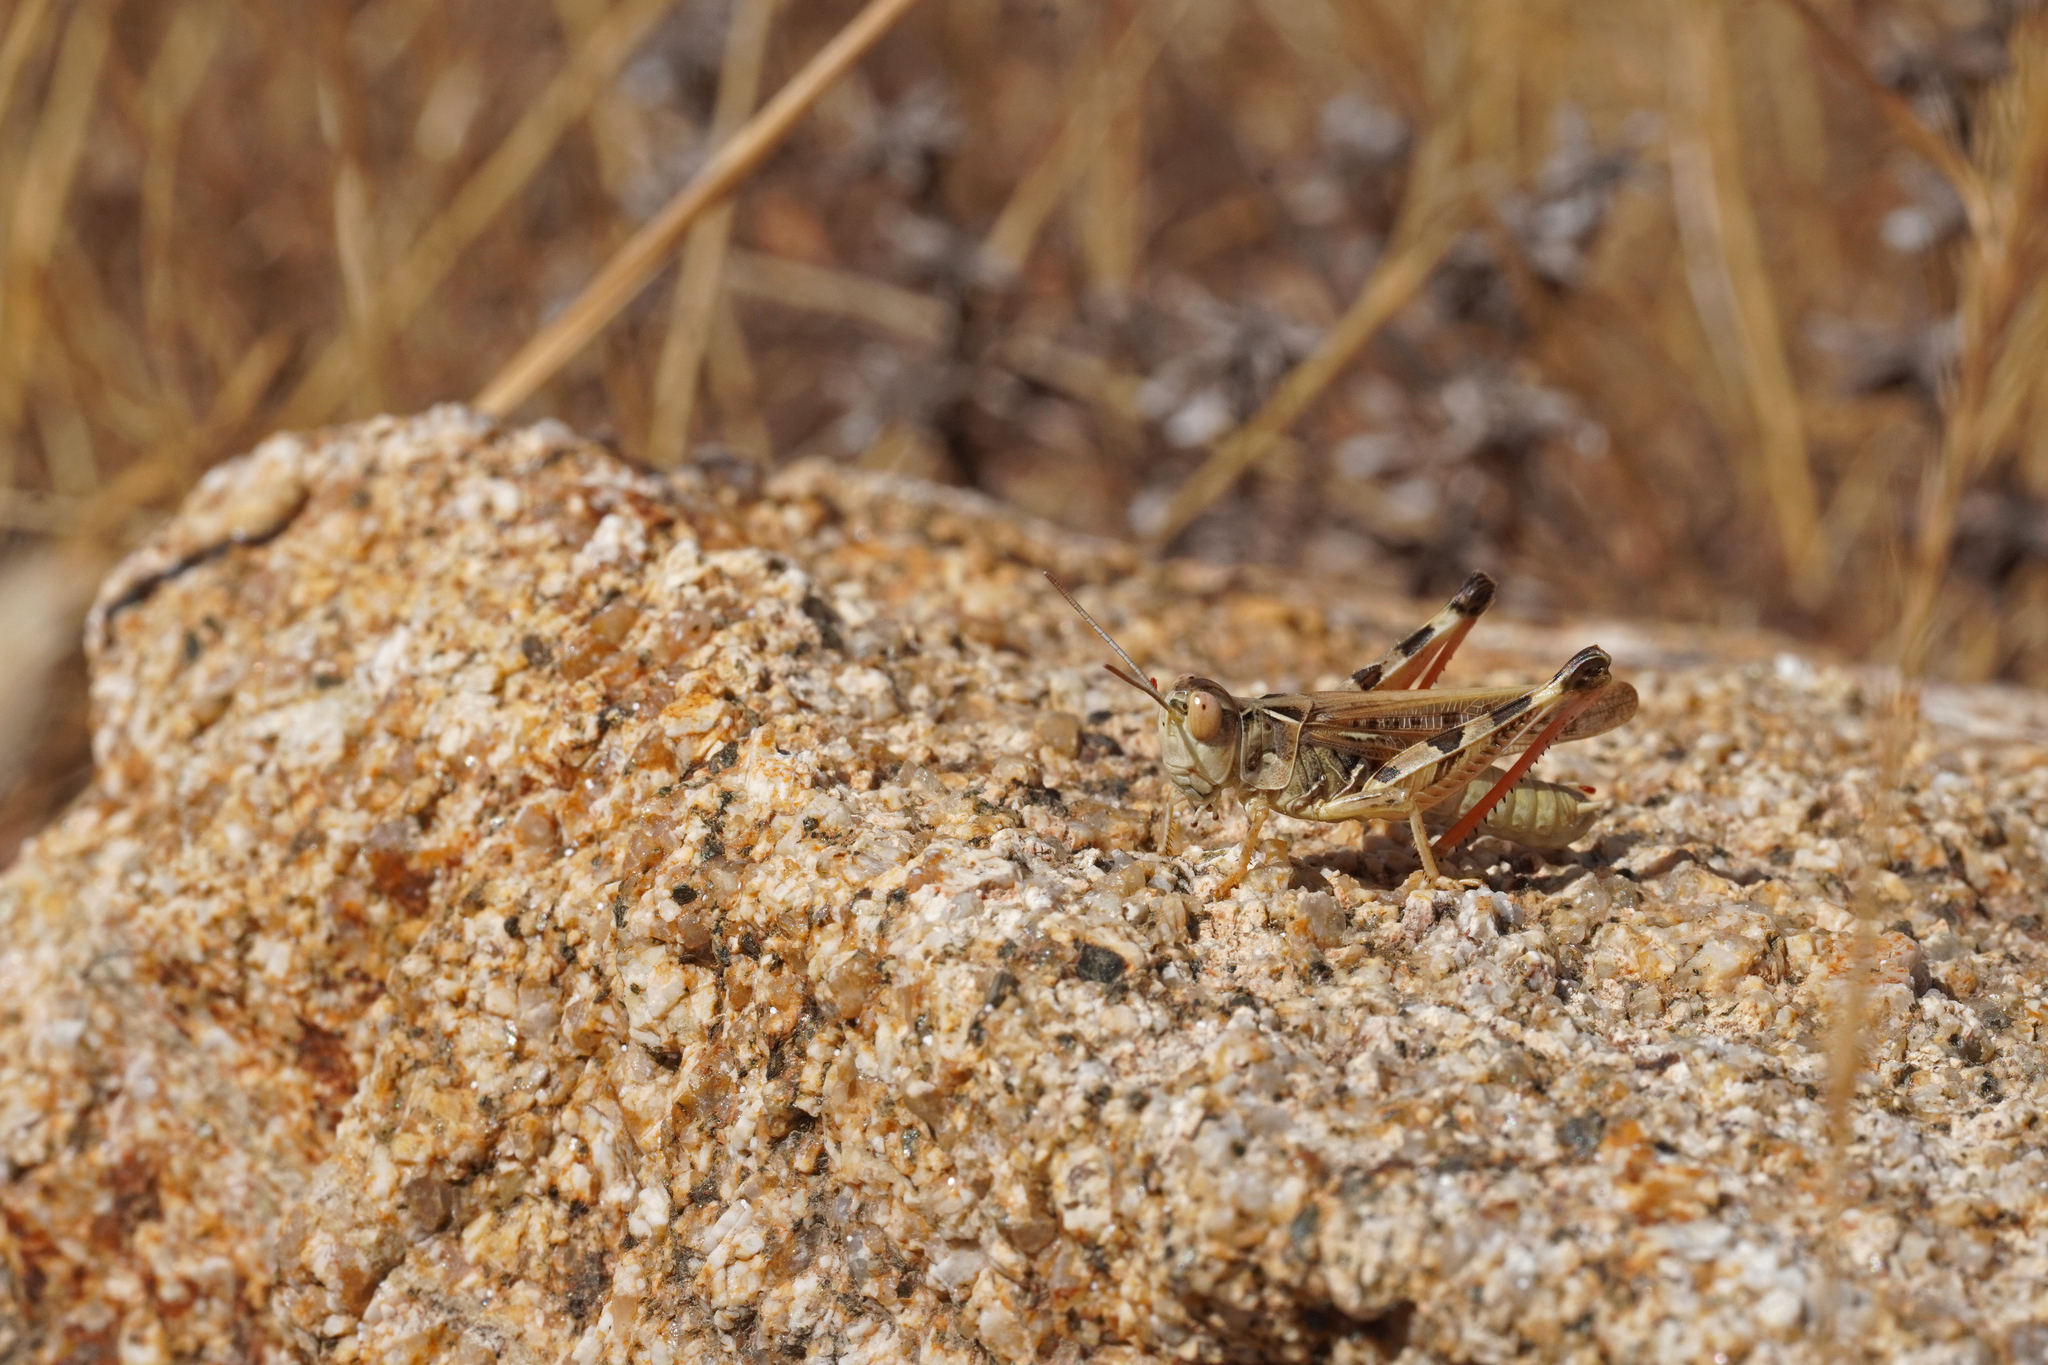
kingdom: Animalia
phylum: Arthropoda
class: Insecta
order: Orthoptera
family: Acrididae
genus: Dociostaurus
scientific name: Dociostaurus jagoi
